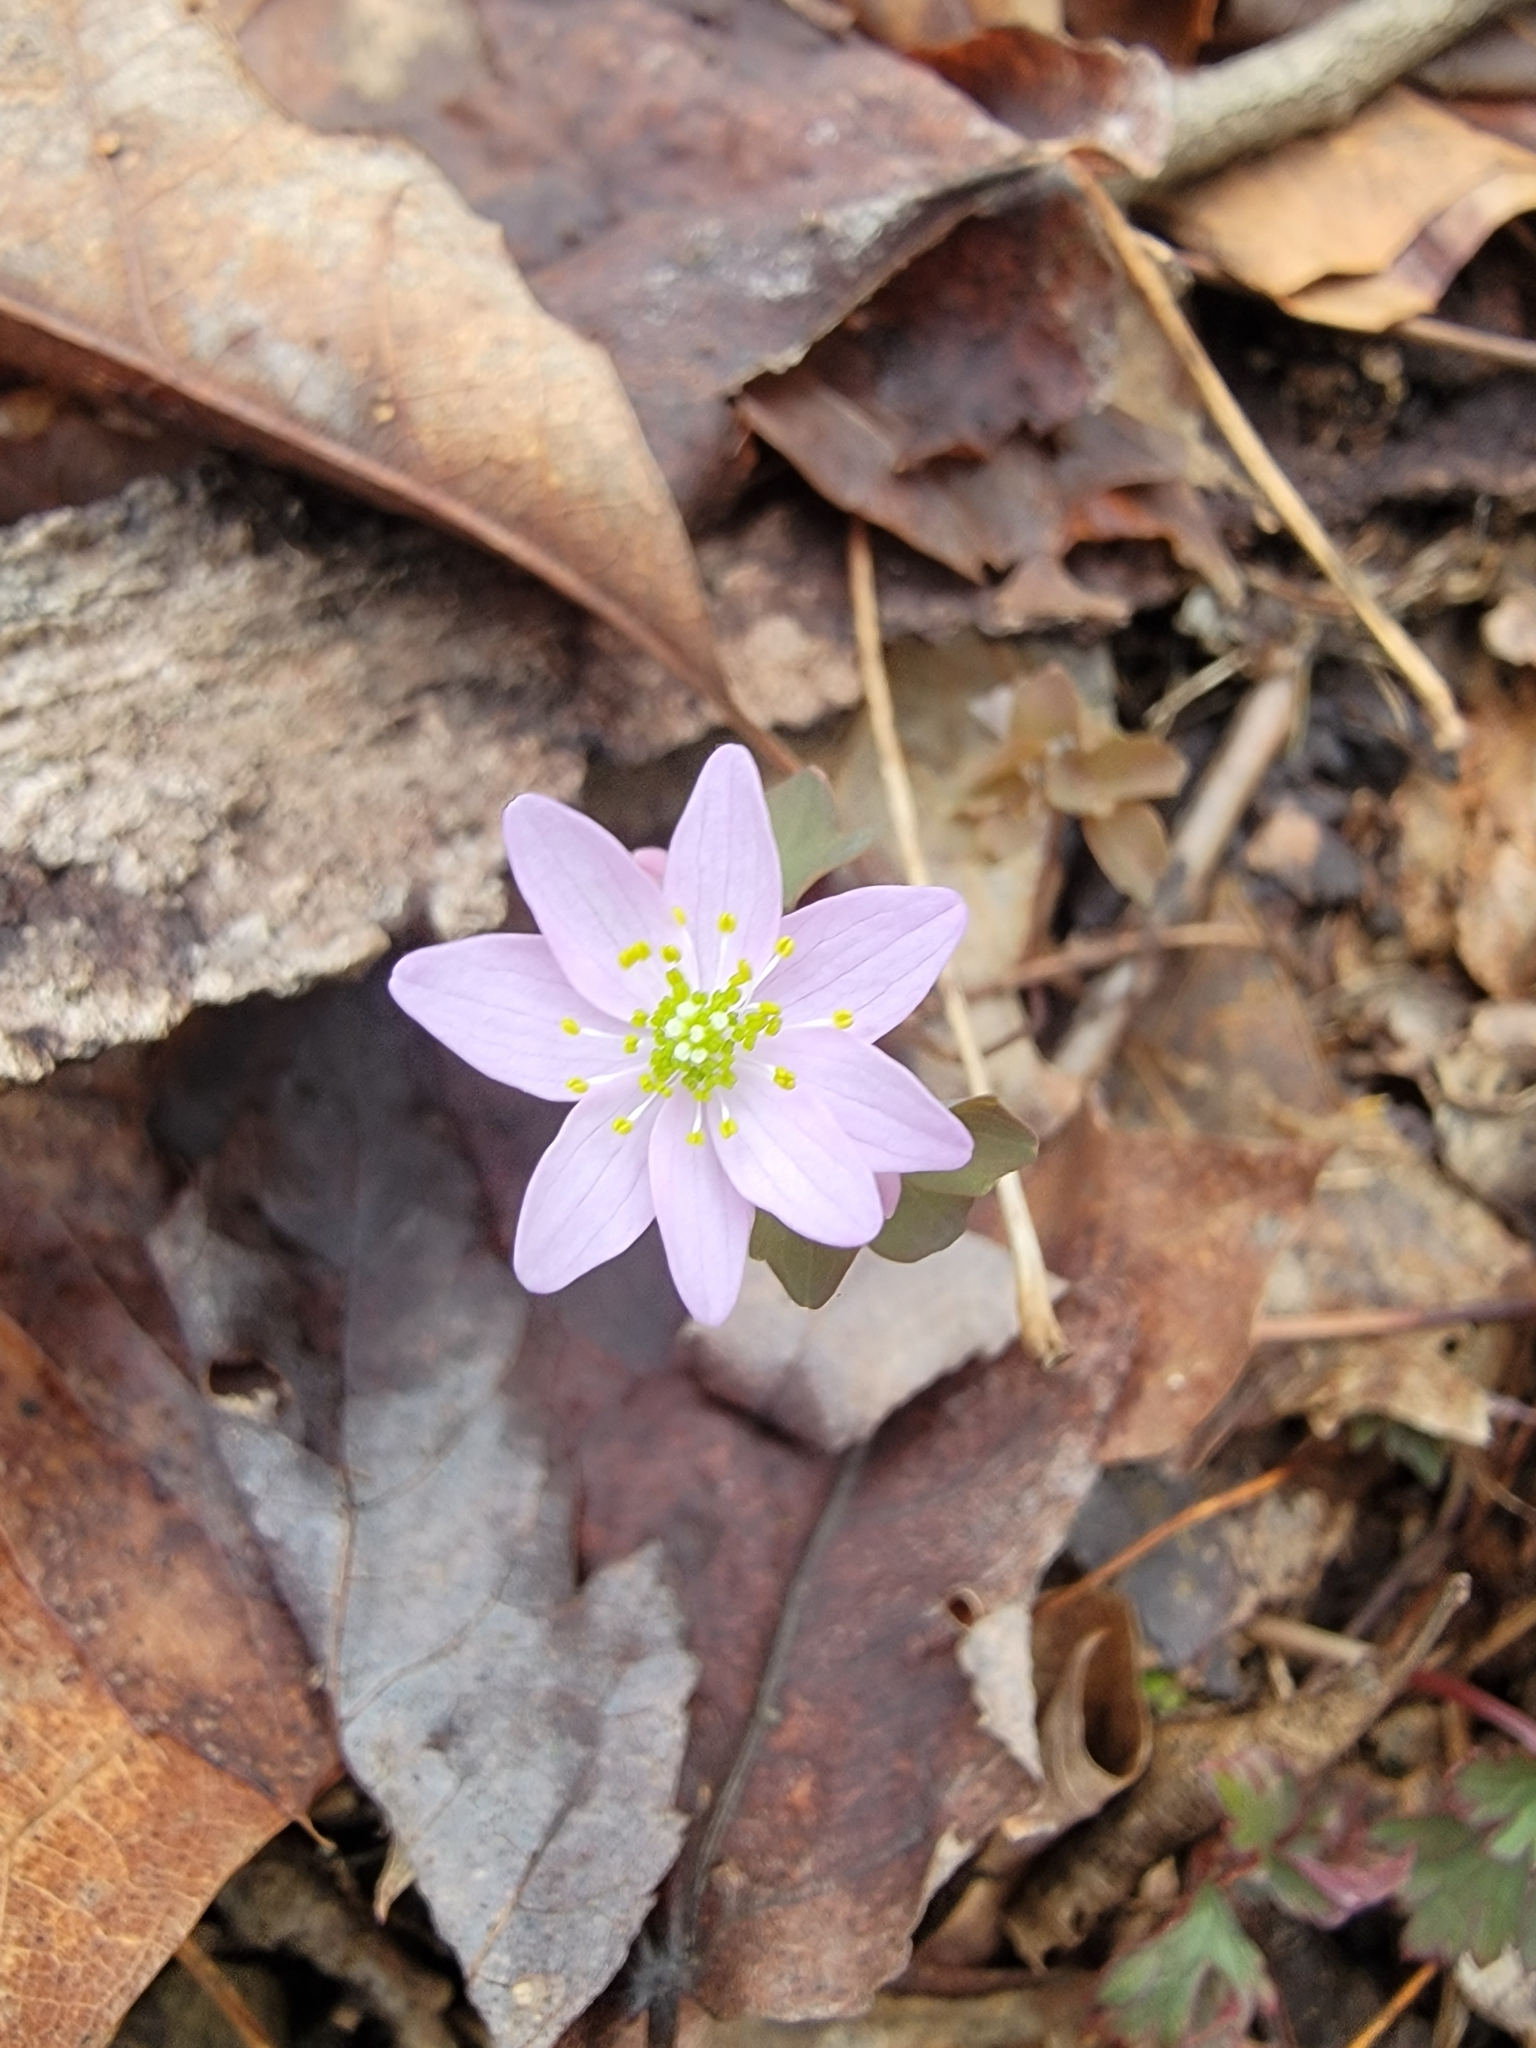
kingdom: Plantae
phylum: Tracheophyta
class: Magnoliopsida
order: Ranunculales
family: Ranunculaceae
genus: Thalictrum
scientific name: Thalictrum thalictroides
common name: Rue-anemone
